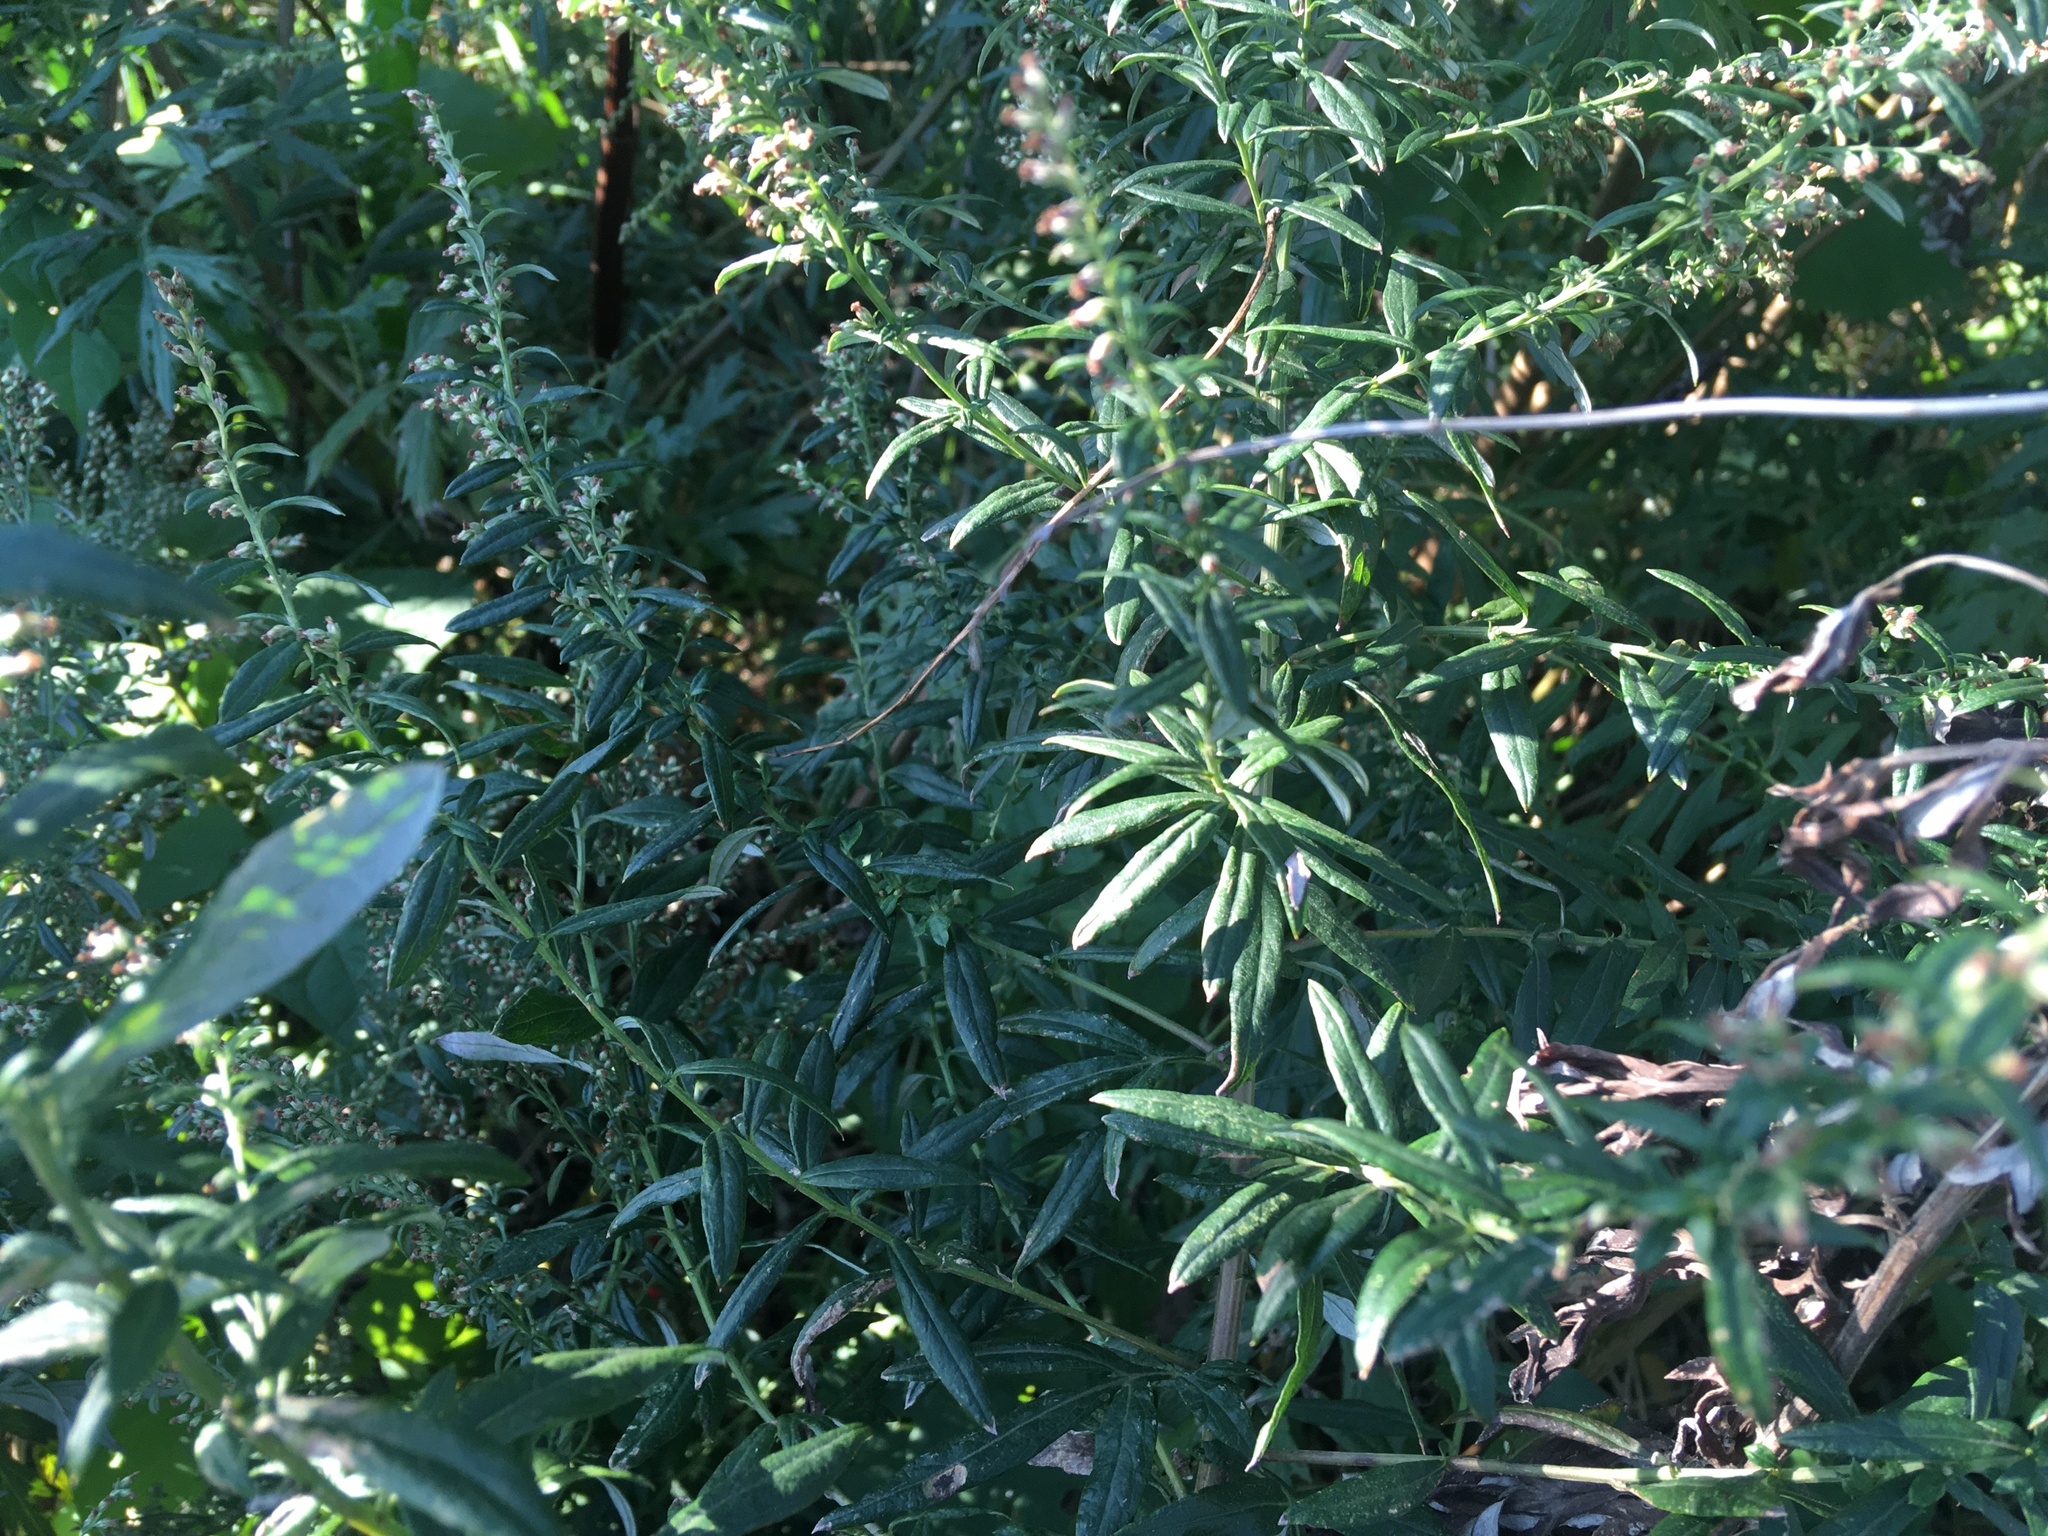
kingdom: Plantae
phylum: Tracheophyta
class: Magnoliopsida
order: Asterales
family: Asteraceae
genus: Artemisia
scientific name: Artemisia vulgaris
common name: Mugwort
